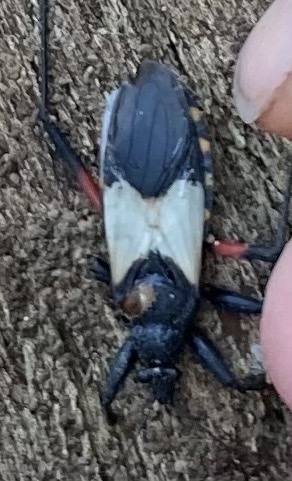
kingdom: Animalia
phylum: Arthropoda
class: Insecta
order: Hemiptera
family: Reduviidae
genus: Microtomus
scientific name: Microtomus purcis
